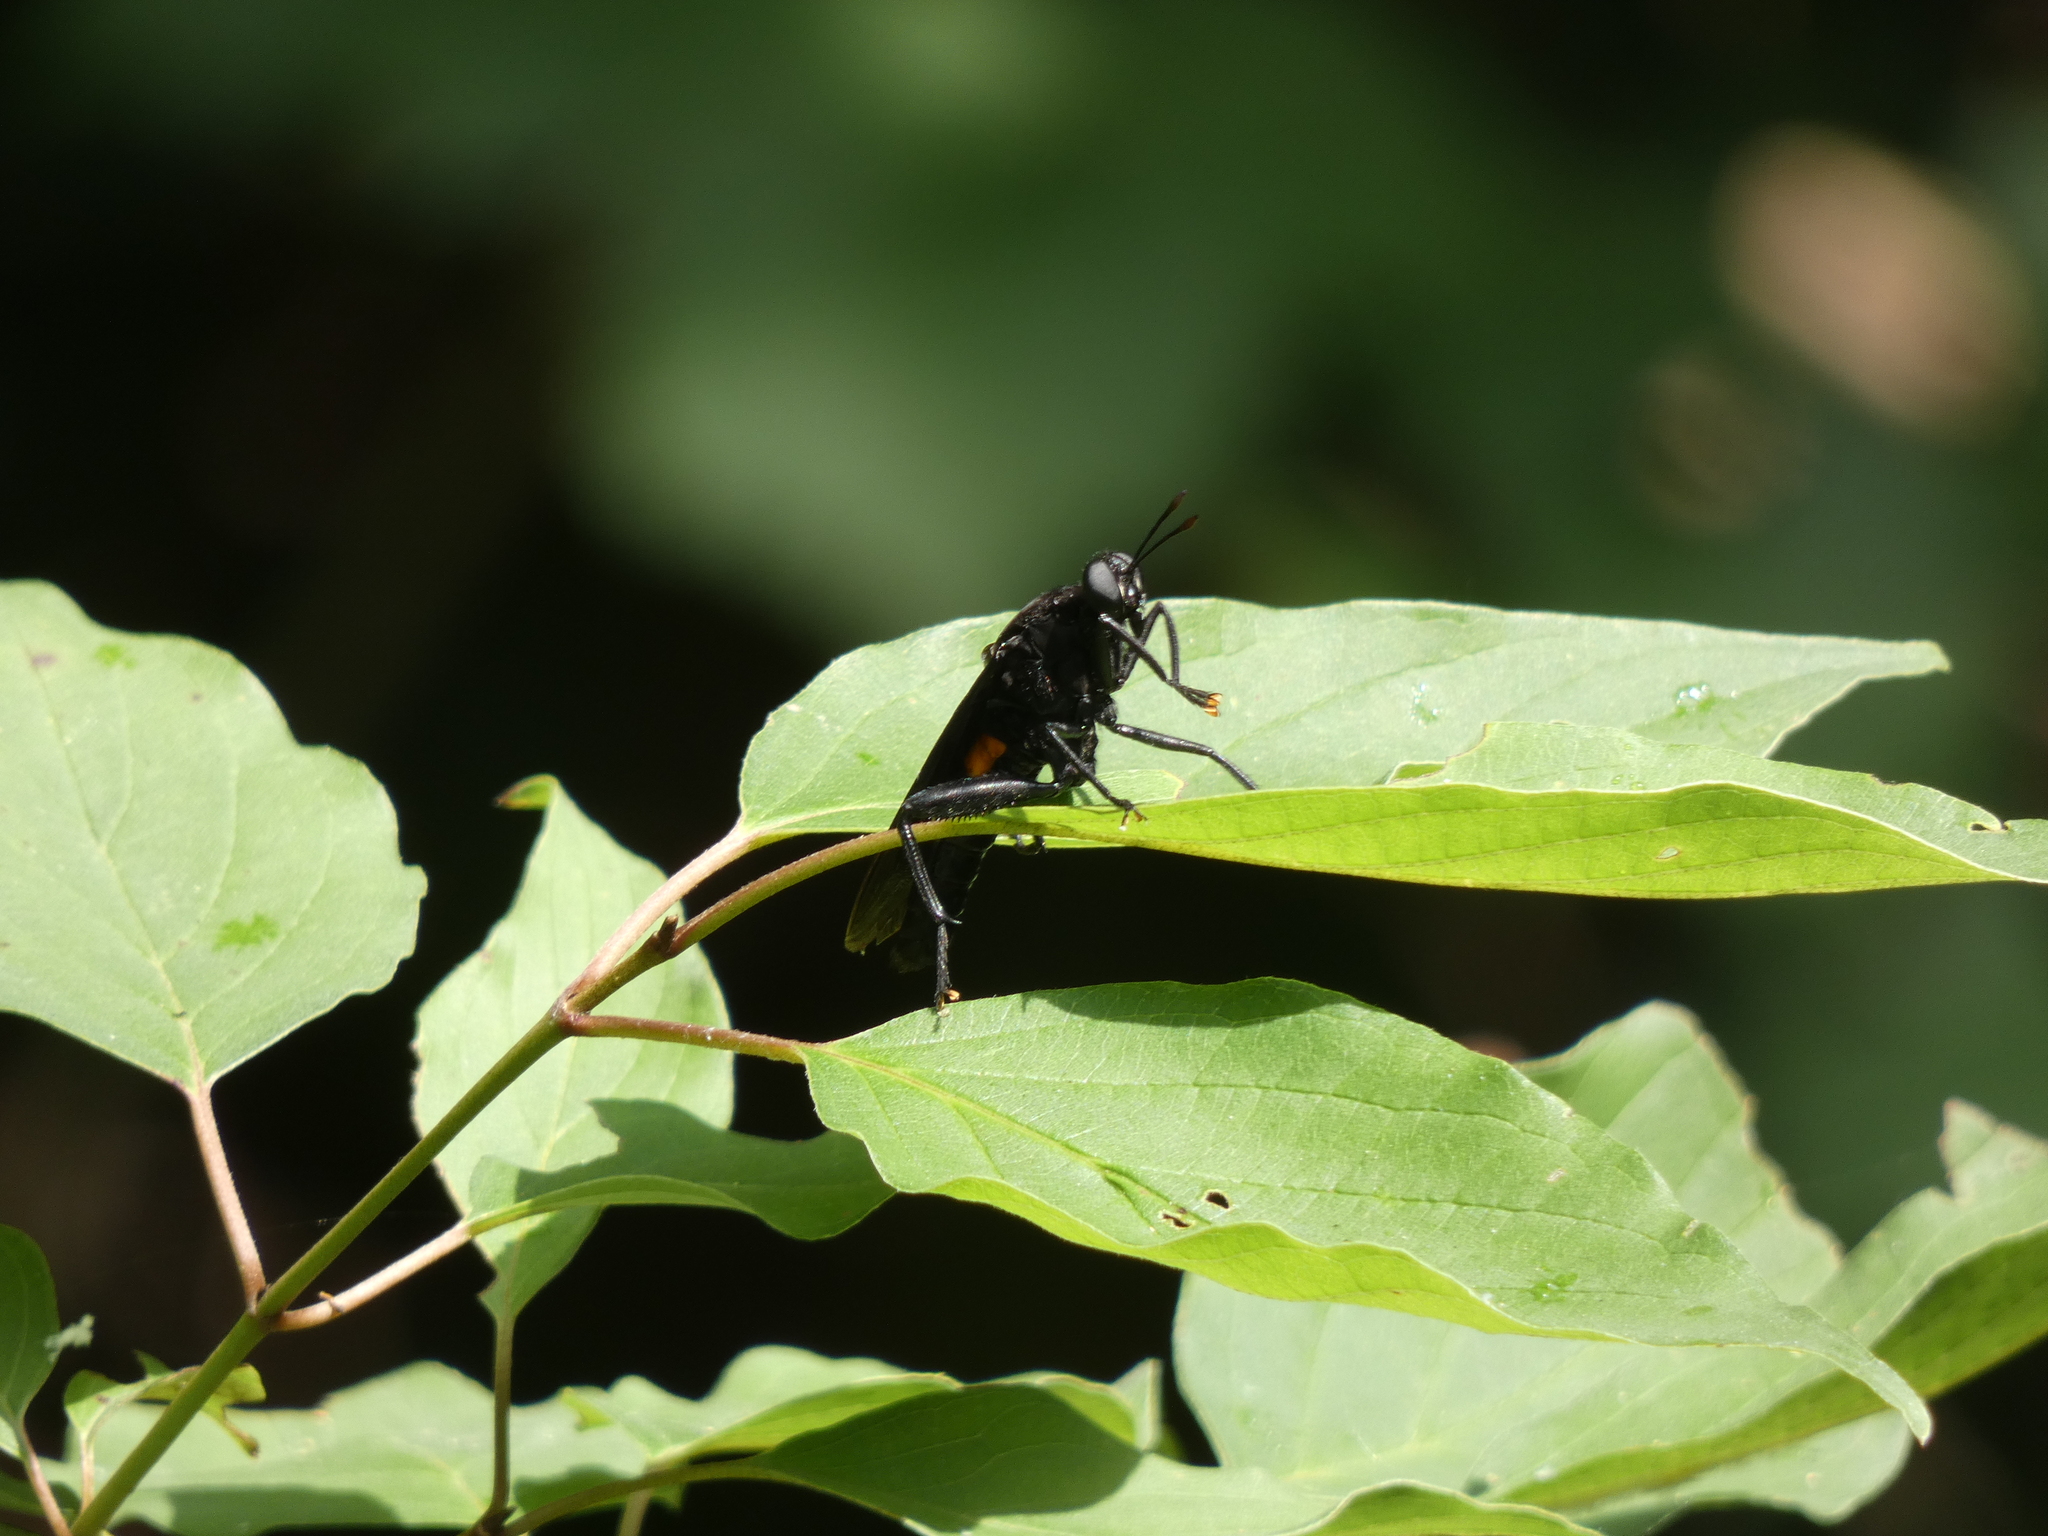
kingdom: Animalia
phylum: Arthropoda
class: Insecta
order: Diptera
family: Mydidae
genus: Mydas
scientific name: Mydas clavatus
